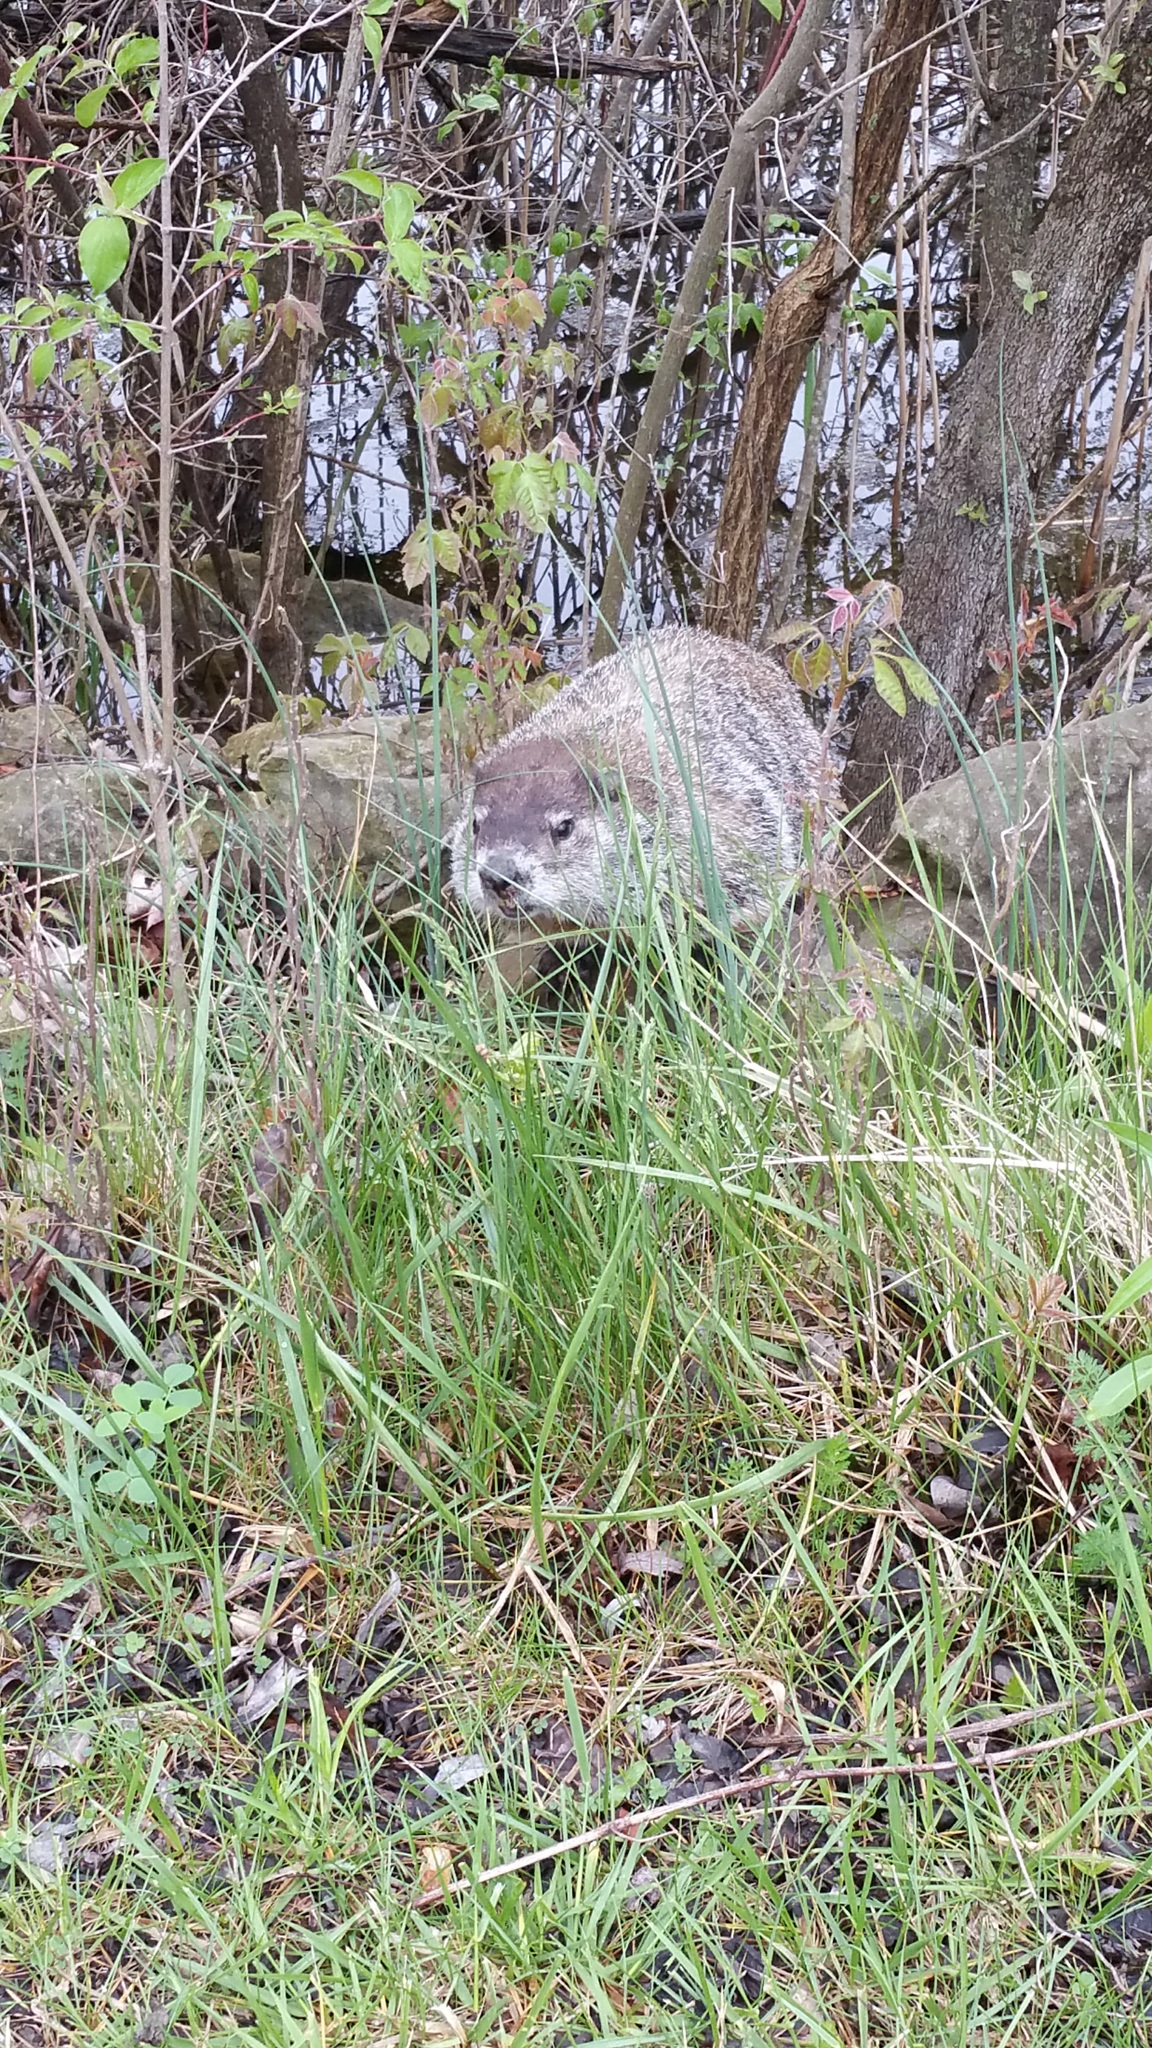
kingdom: Animalia
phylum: Chordata
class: Mammalia
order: Rodentia
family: Sciuridae
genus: Marmota
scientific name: Marmota monax
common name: Groundhog
